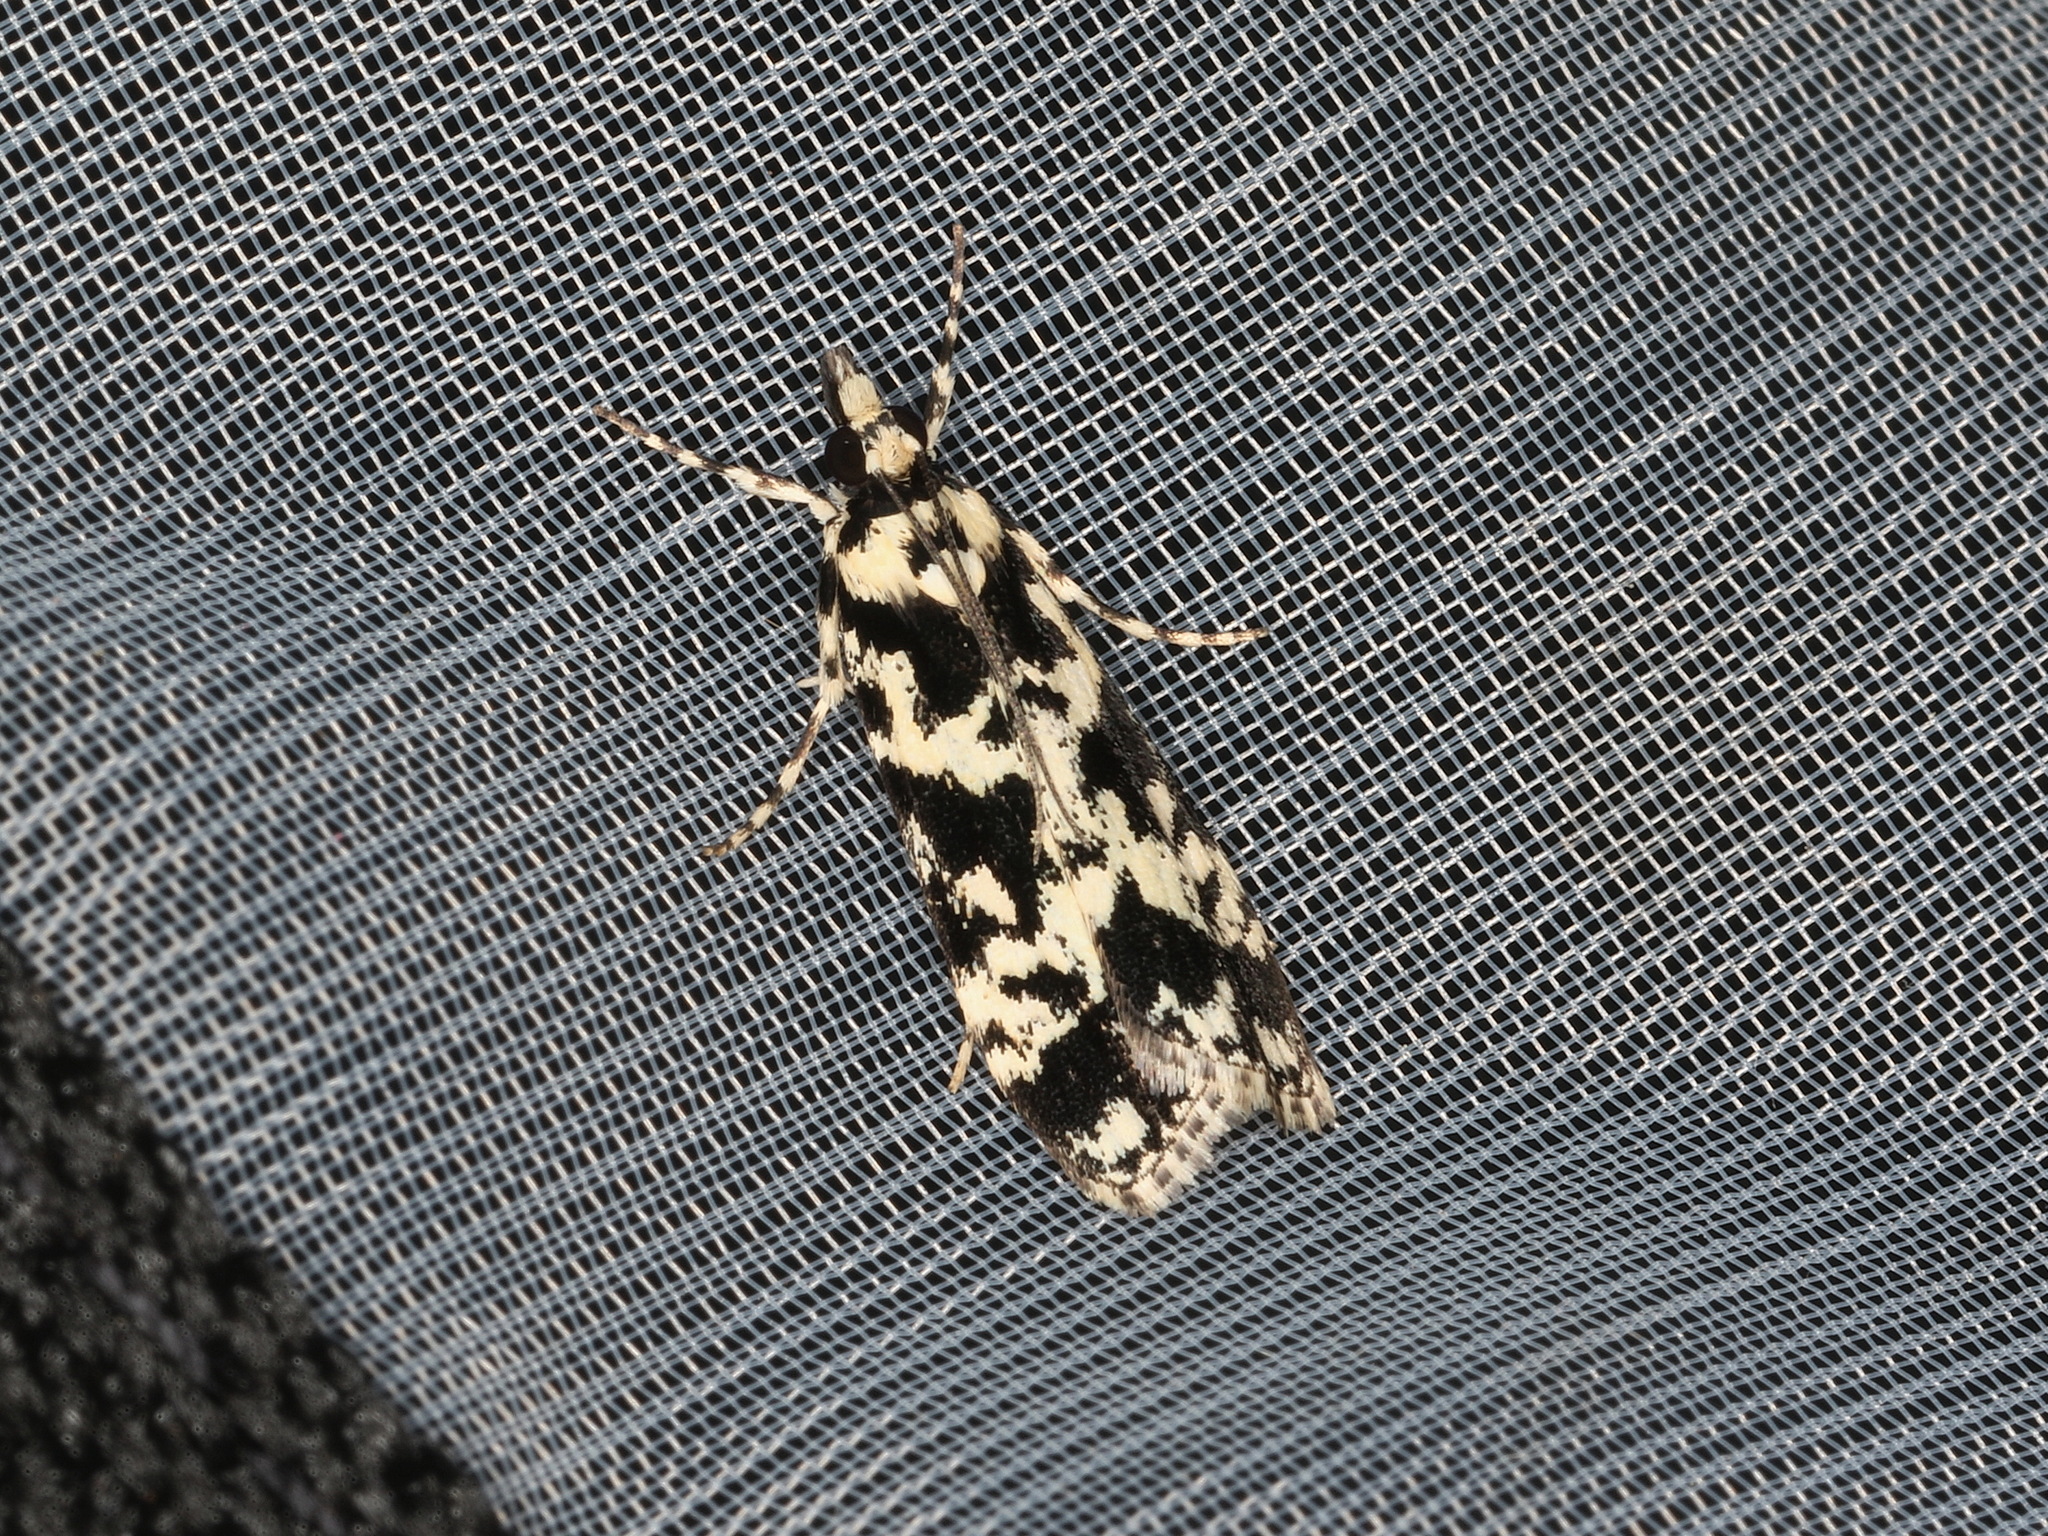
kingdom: Animalia
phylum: Arthropoda
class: Insecta
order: Lepidoptera
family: Crambidae
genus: Scoparia
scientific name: Scoparia exhibitalis
